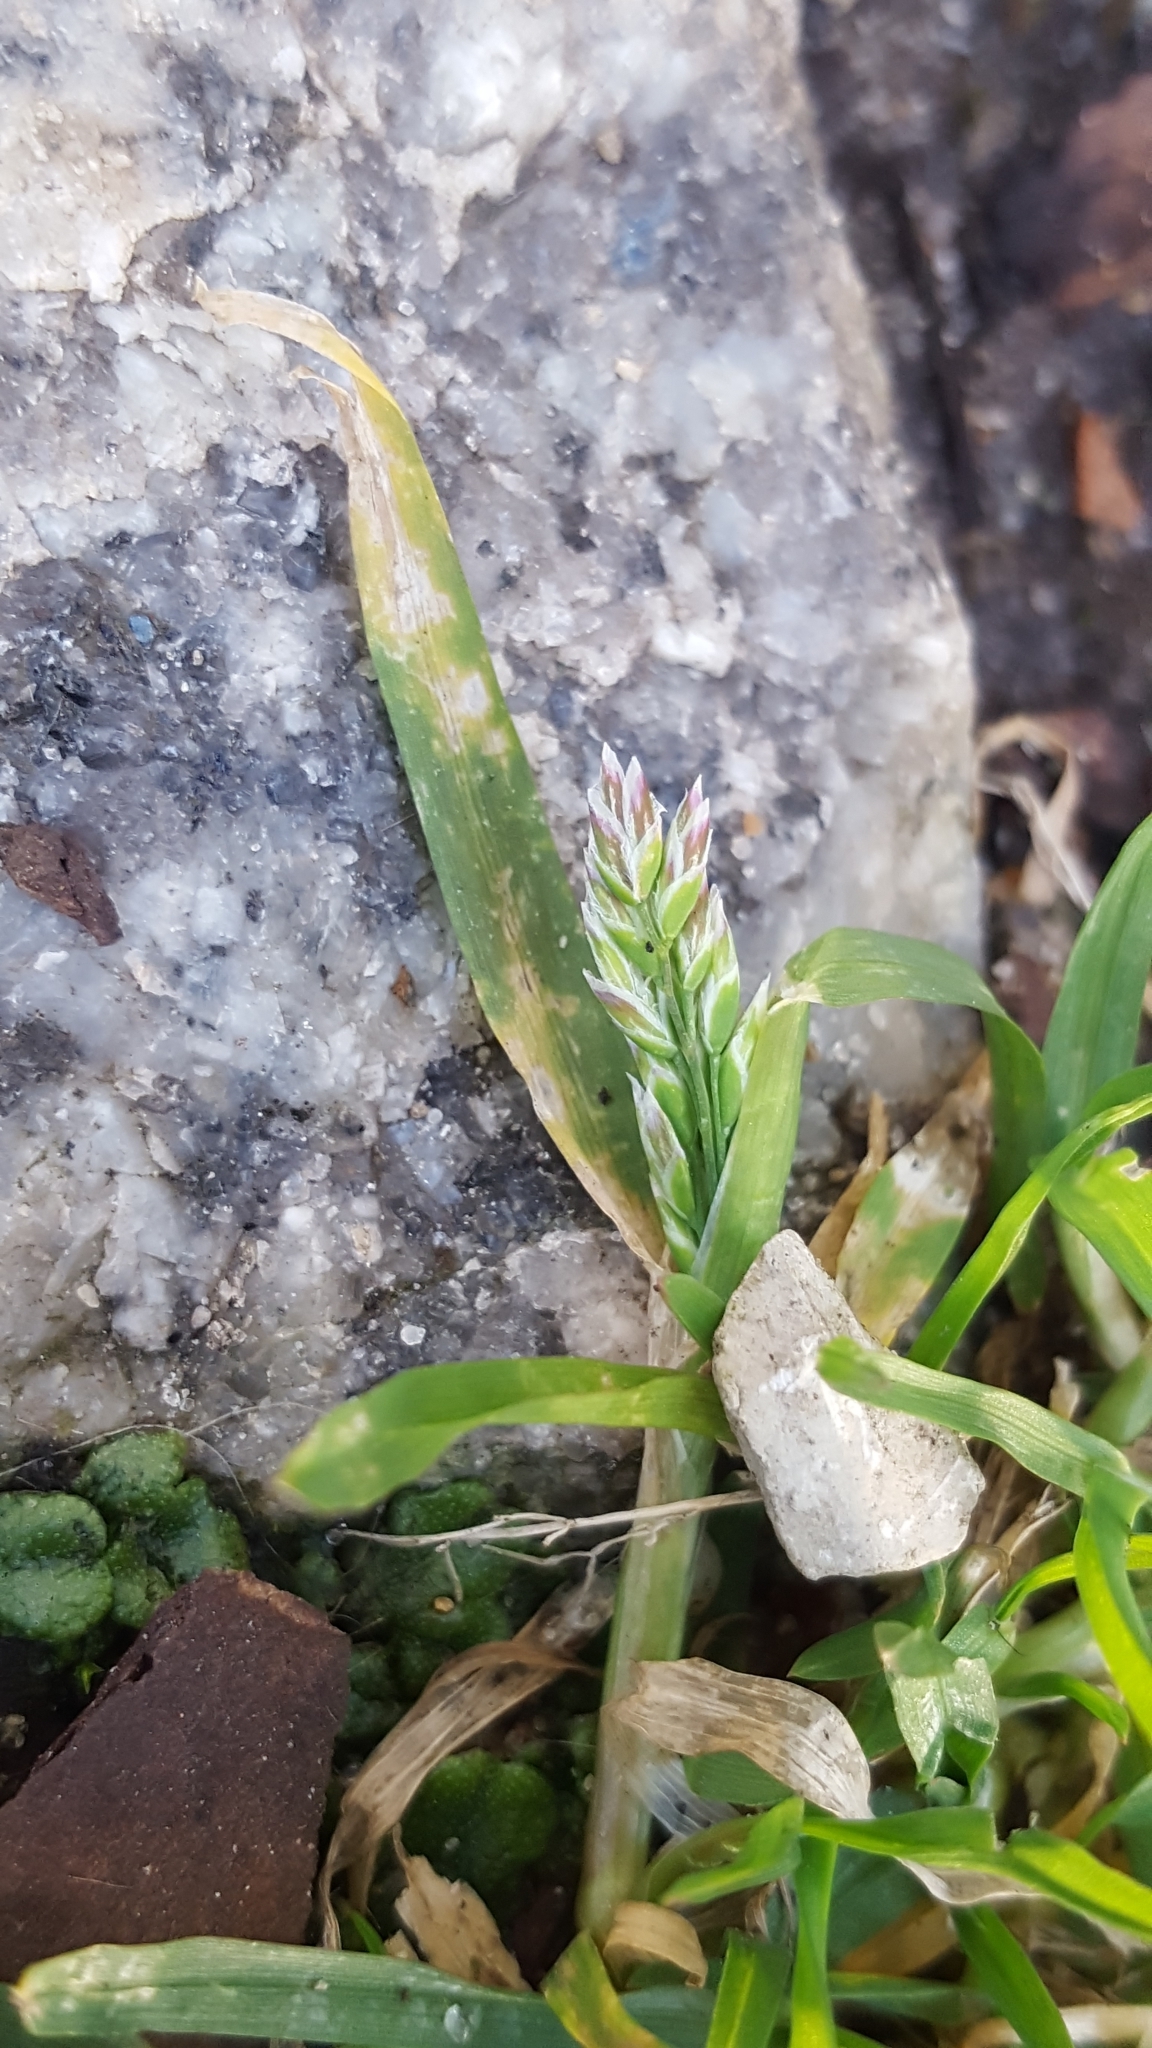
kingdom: Plantae
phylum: Tracheophyta
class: Liliopsida
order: Poales
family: Poaceae
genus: Poa
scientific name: Poa annua
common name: Annual bluegrass
